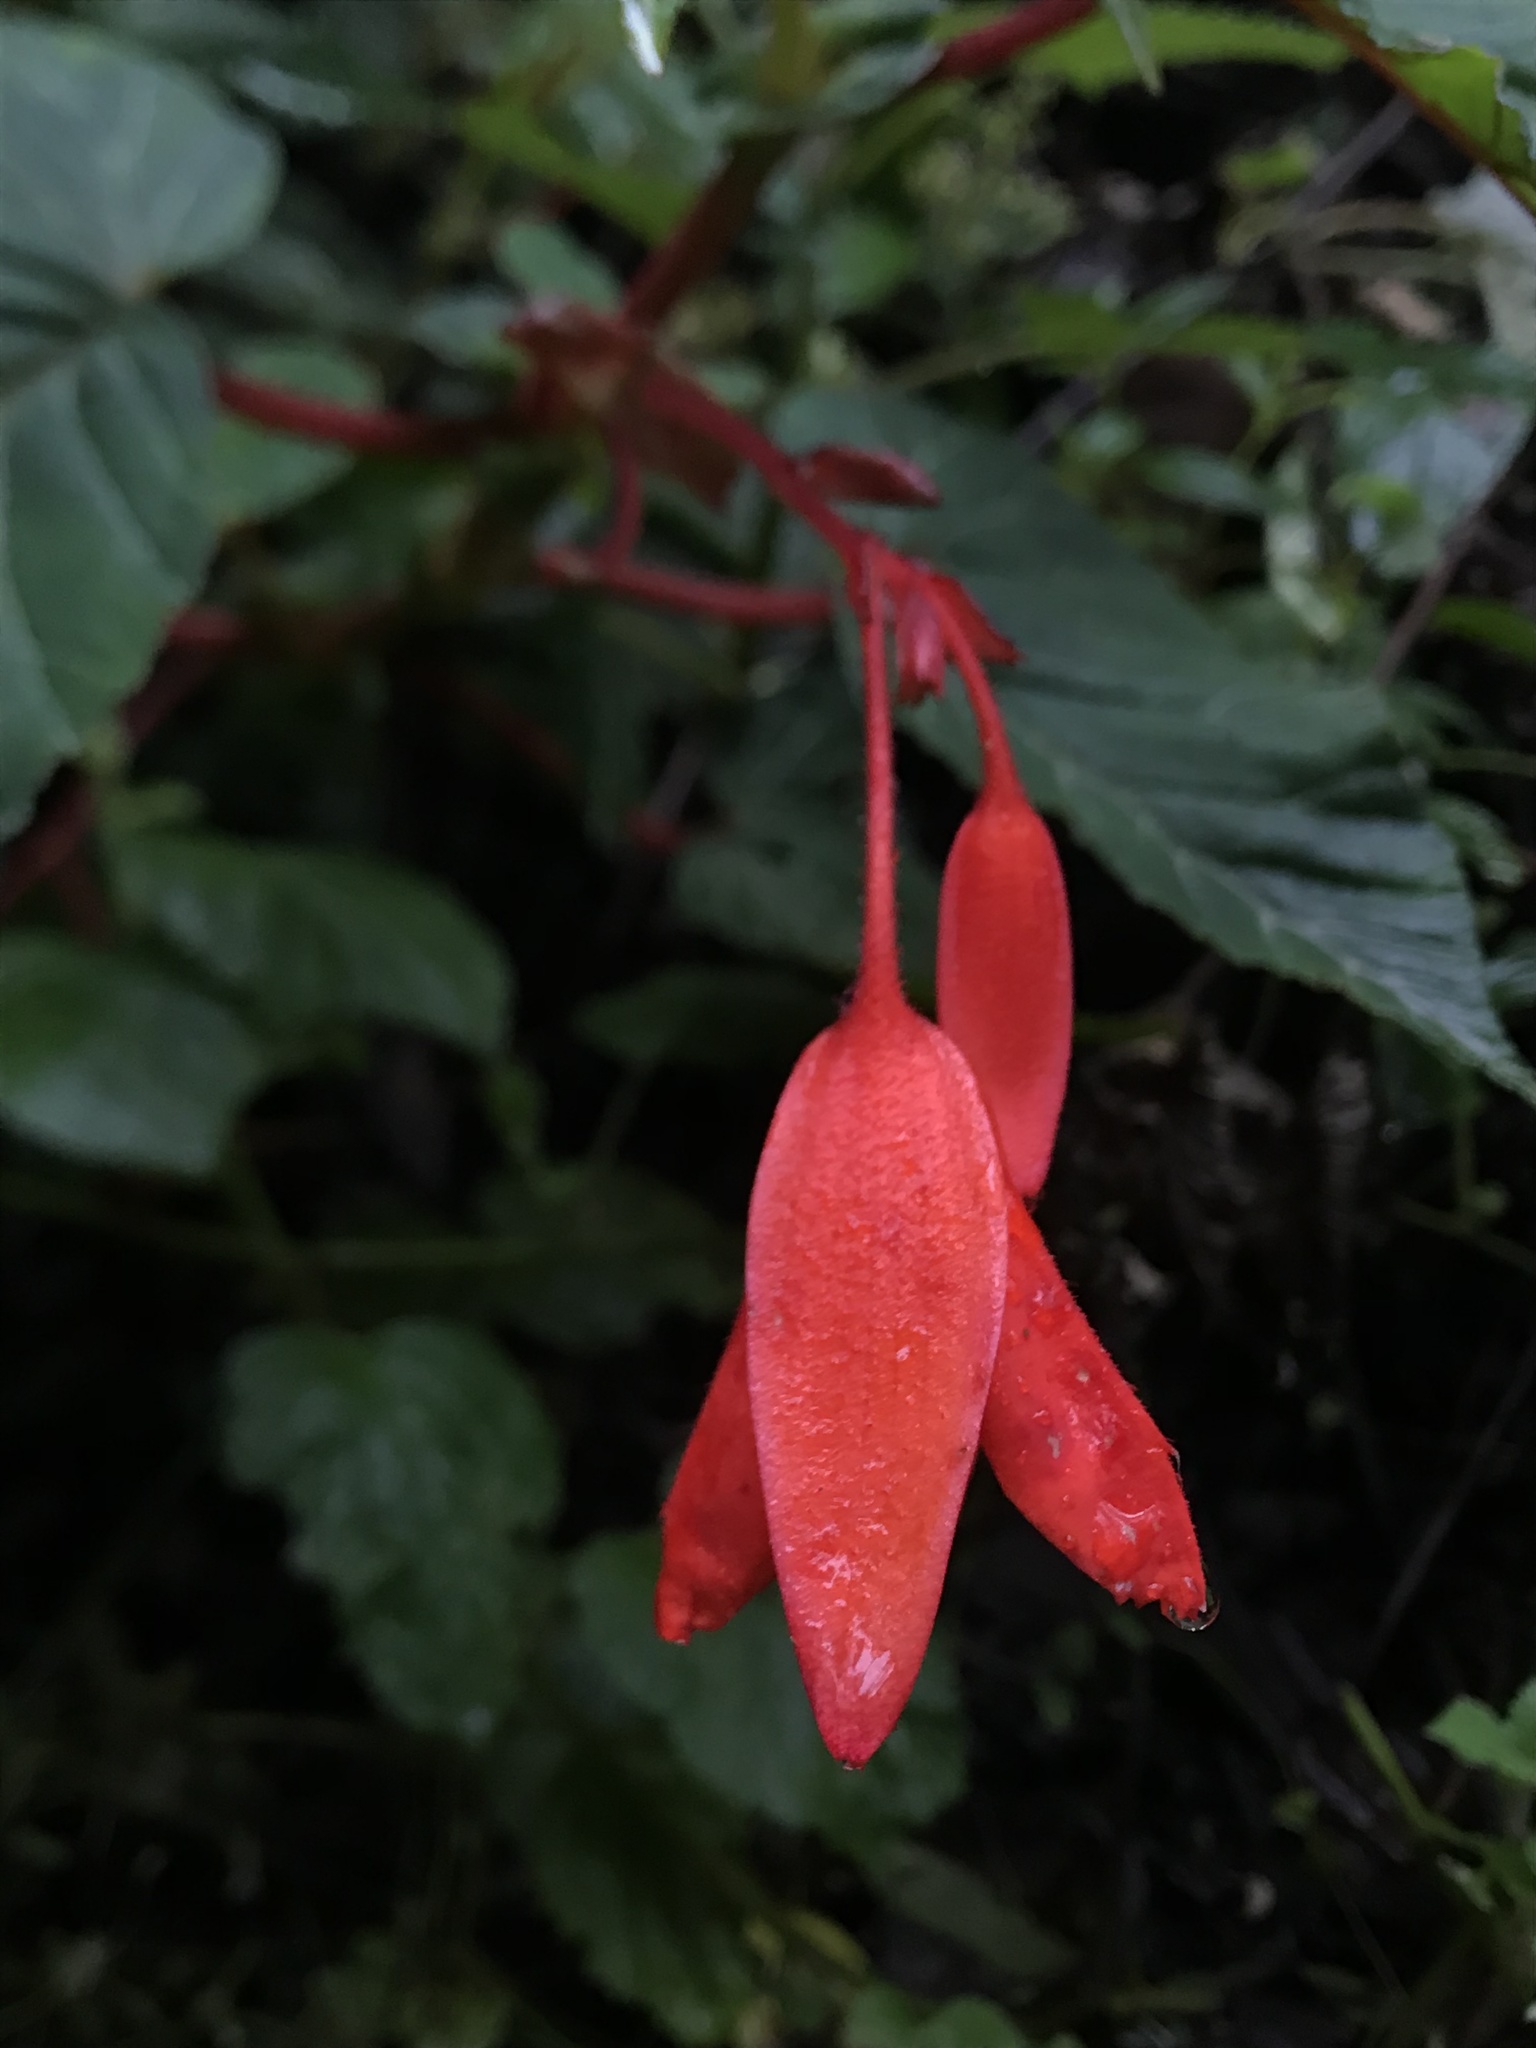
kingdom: Plantae
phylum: Tracheophyta
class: Magnoliopsida
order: Cucurbitales
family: Begoniaceae
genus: Begonia
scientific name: Begonia ferruginea
